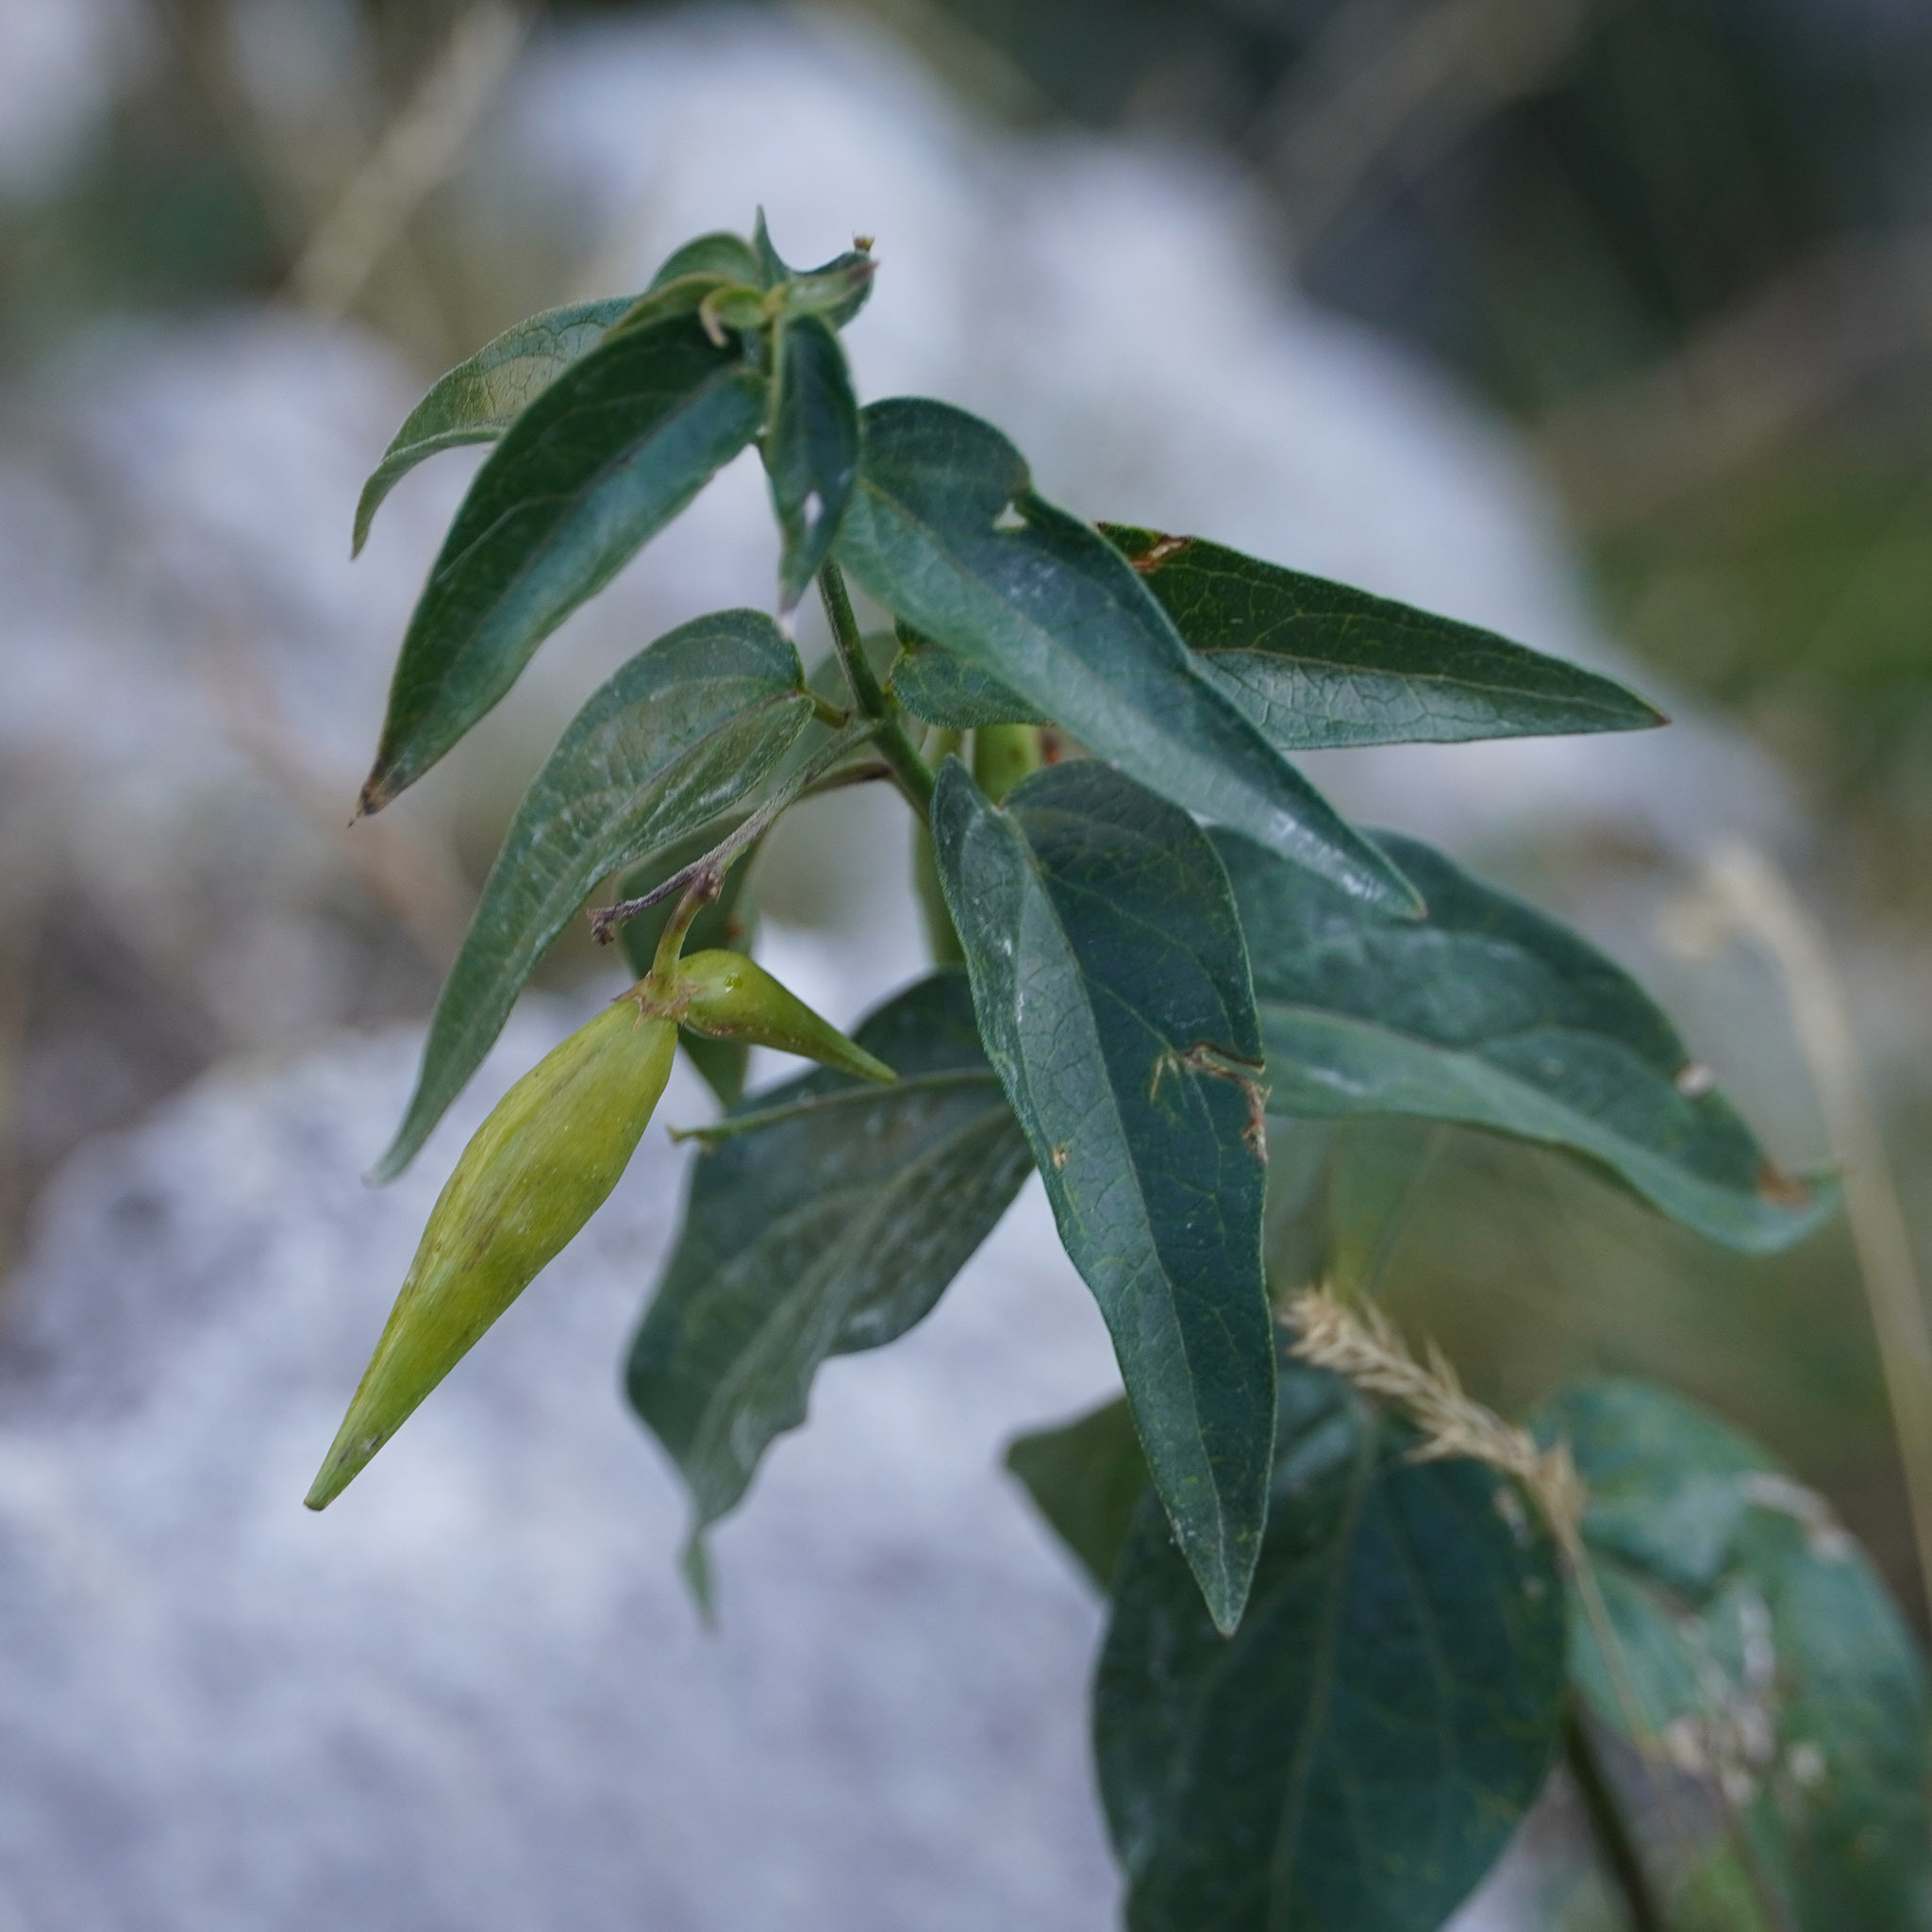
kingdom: Plantae
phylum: Tracheophyta
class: Magnoliopsida
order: Gentianales
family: Apocynaceae
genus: Vincetoxicum
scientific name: Vincetoxicum hirundinaria
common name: White swallowwort
